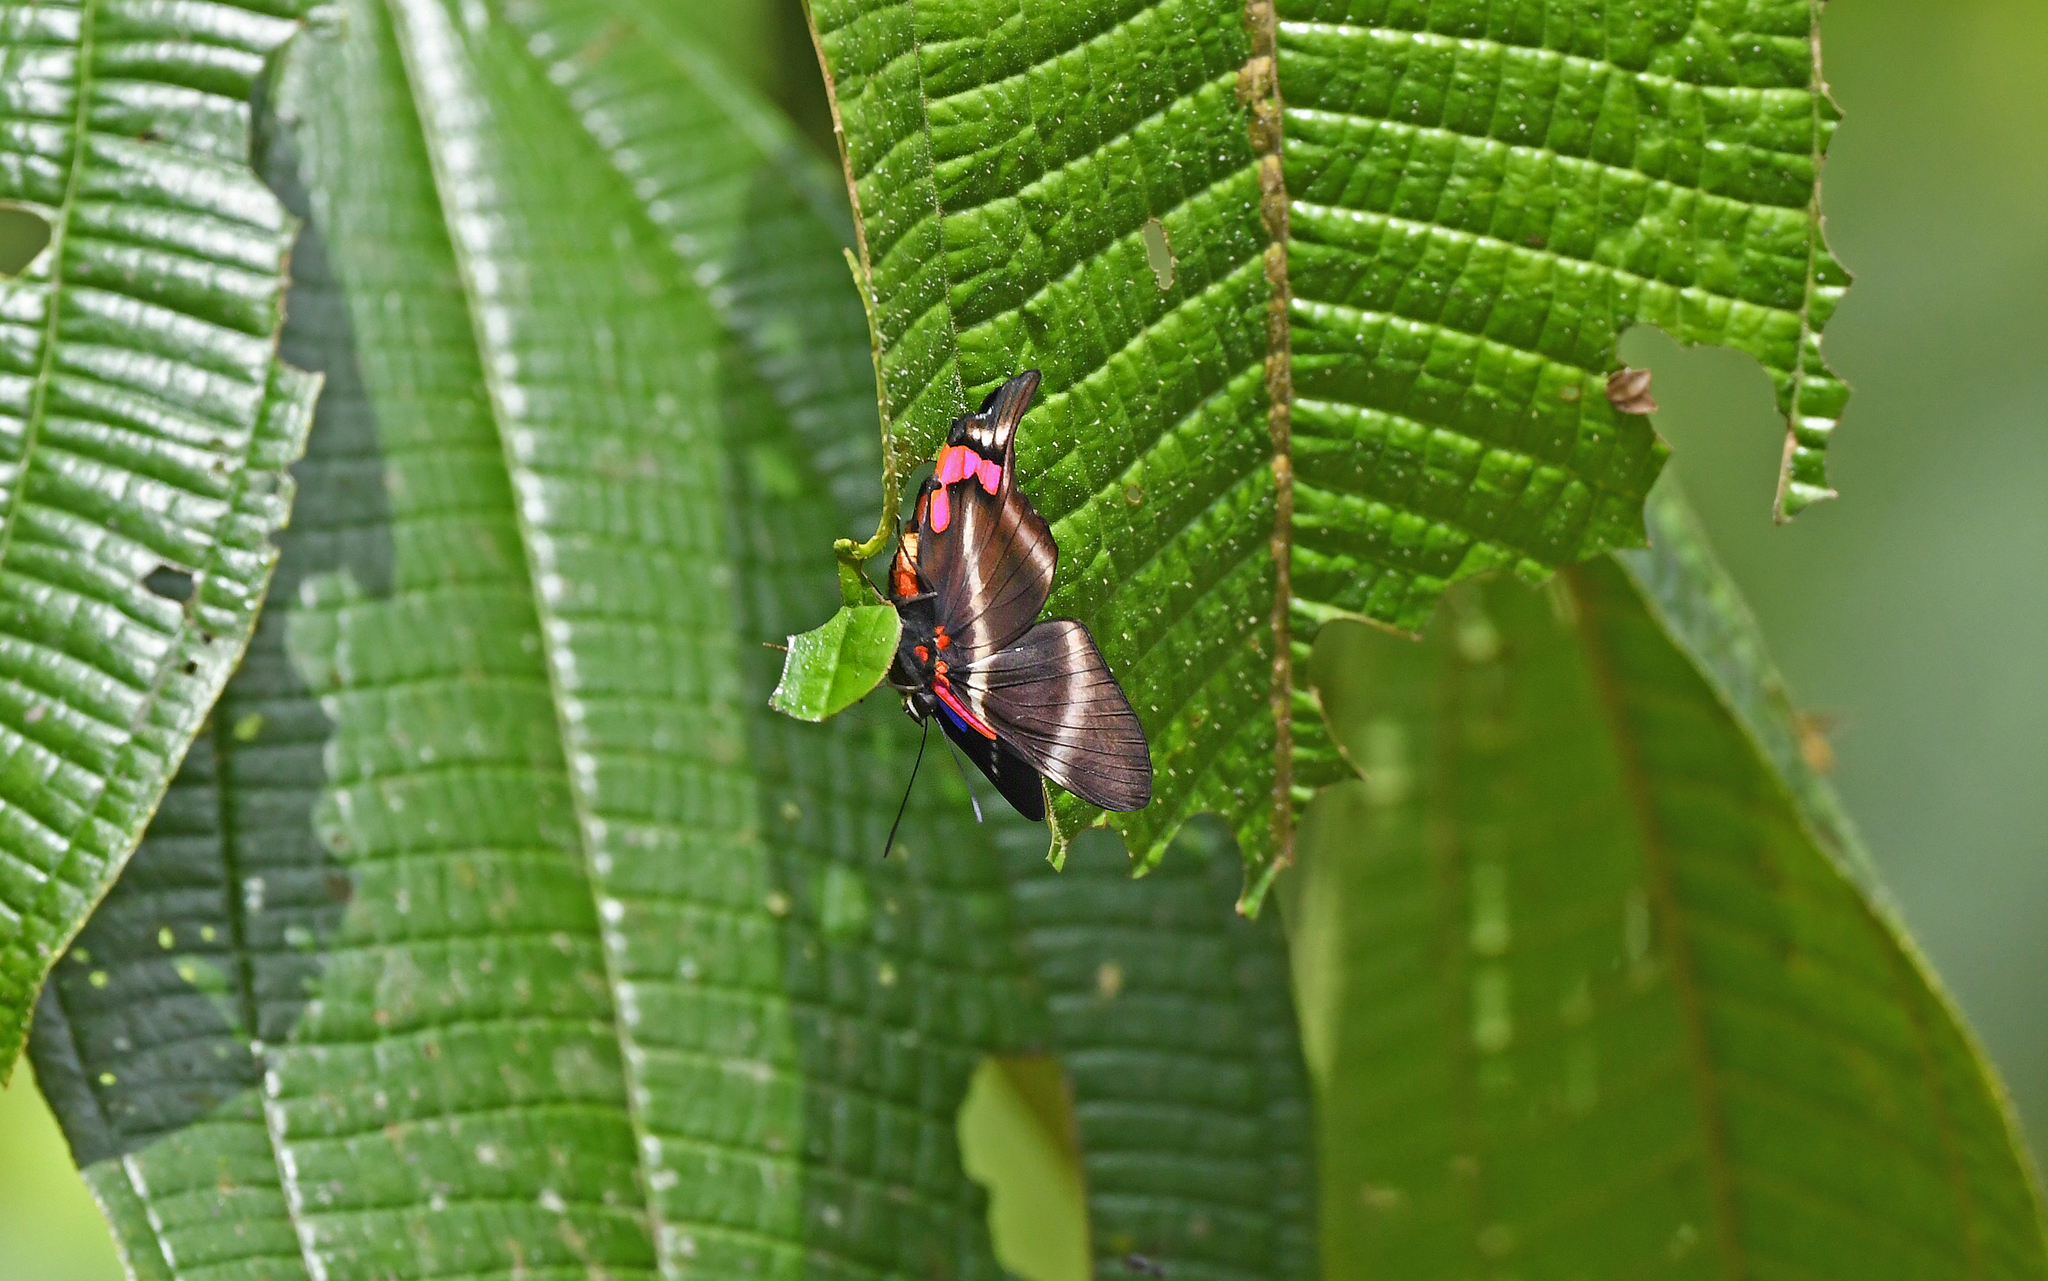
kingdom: Animalia
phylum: Arthropoda
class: Insecta
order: Lepidoptera
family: Riodinidae
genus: Rhetus
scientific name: Rhetus periander
